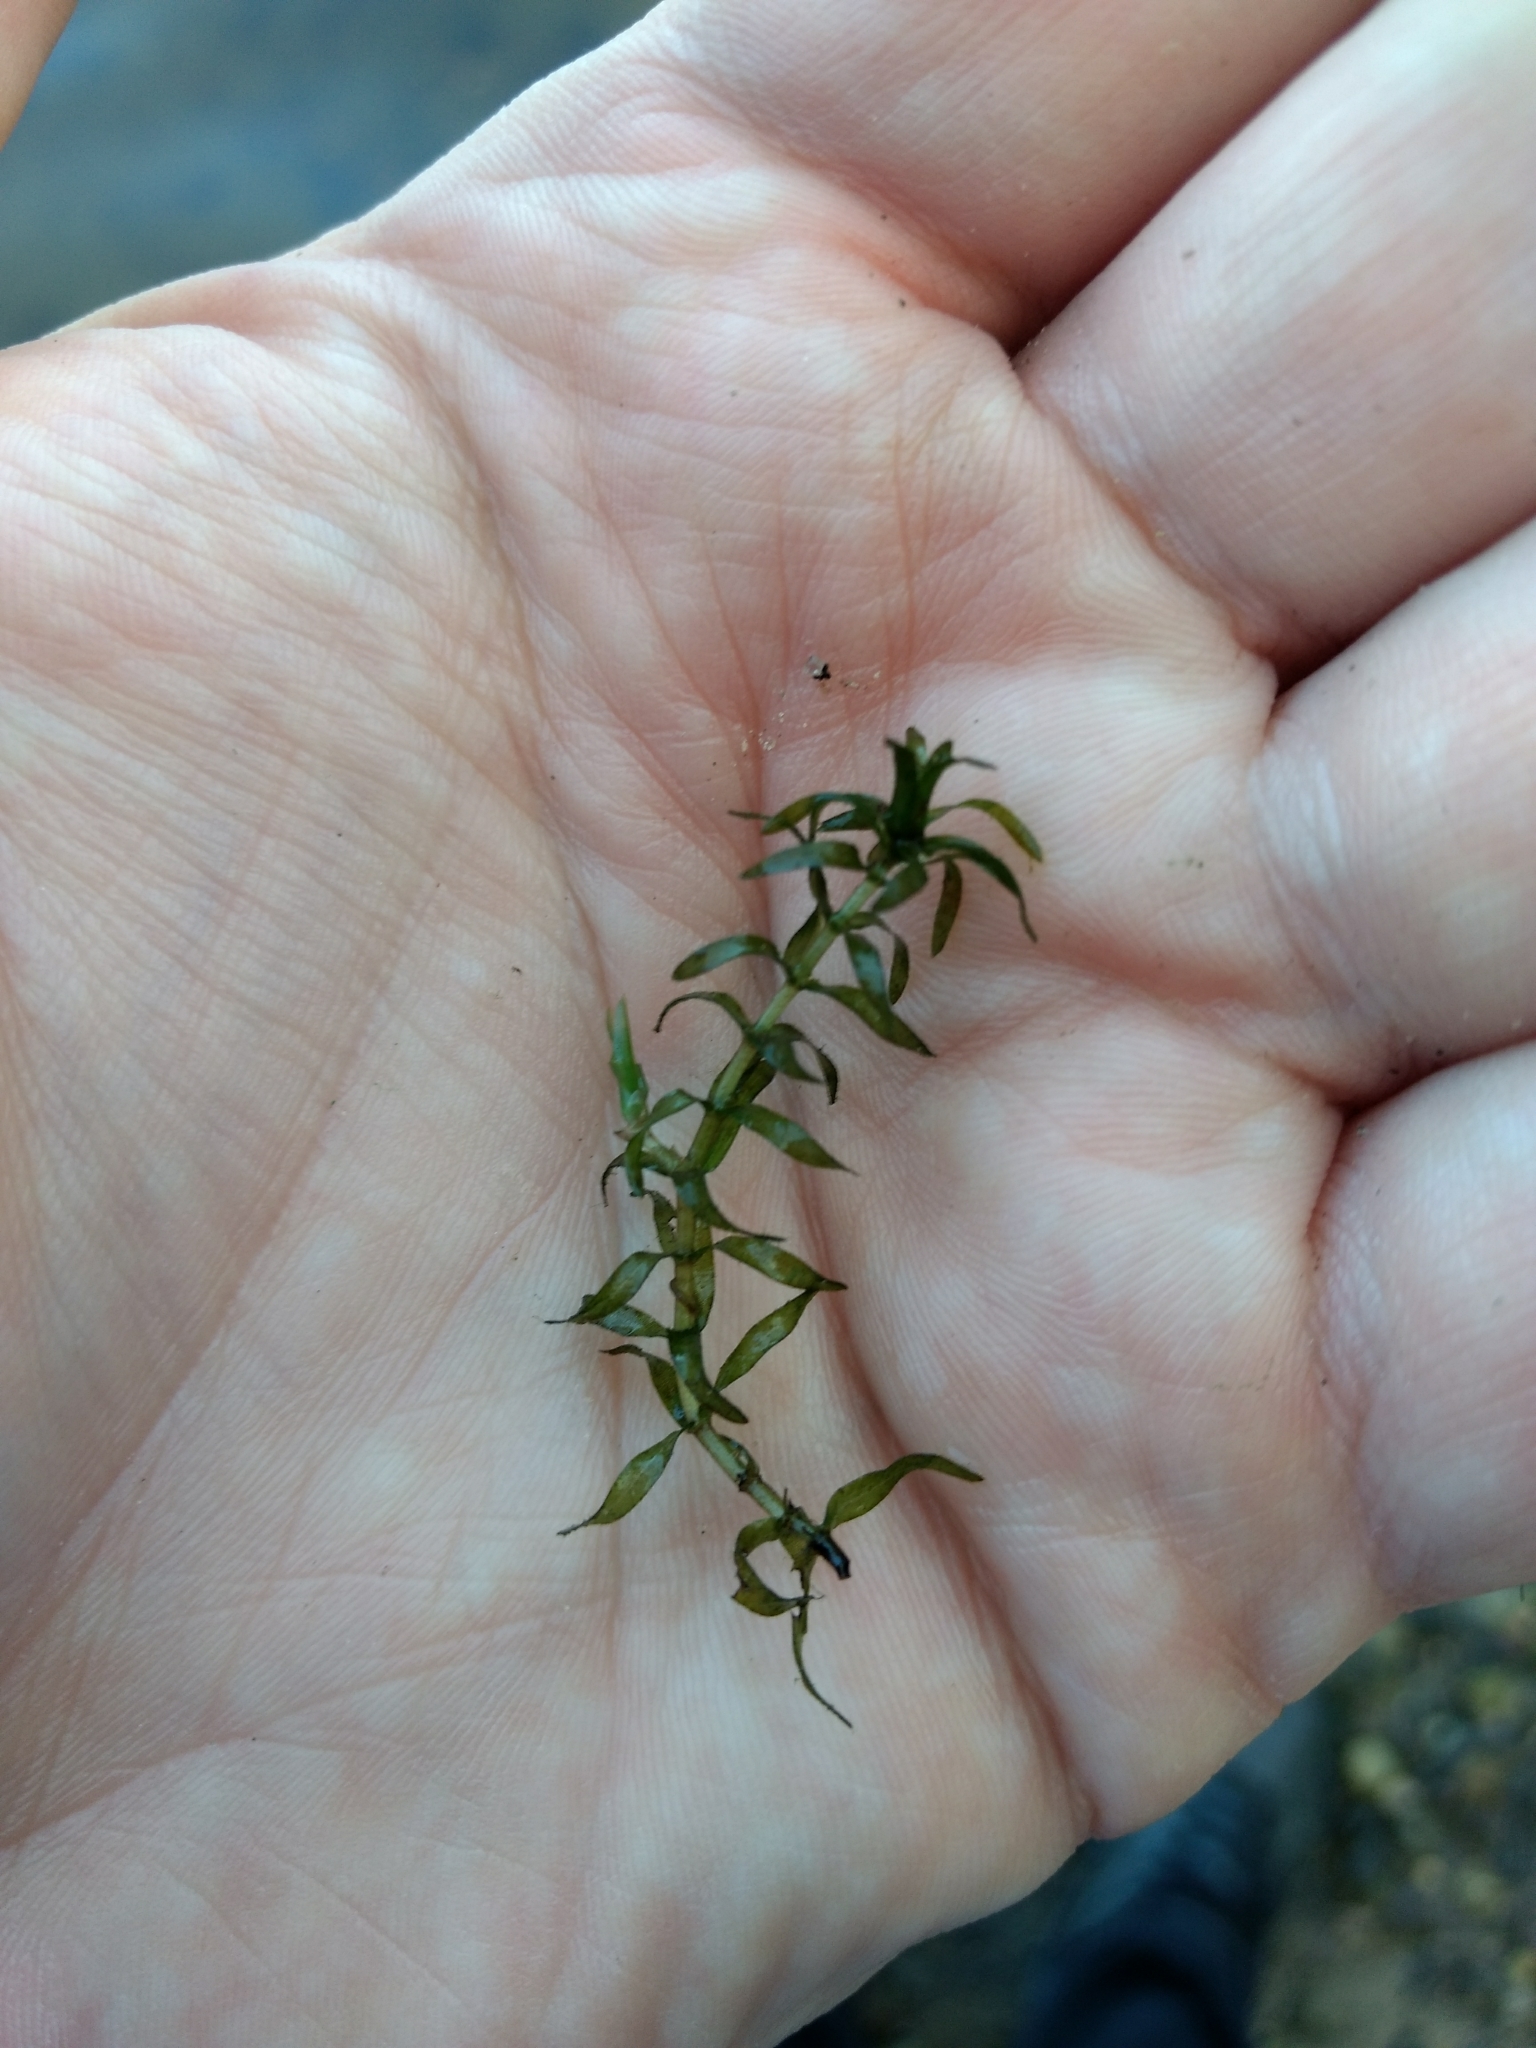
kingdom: Plantae
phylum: Tracheophyta
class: Liliopsida
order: Alismatales
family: Hydrocharitaceae
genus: Elodea
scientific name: Elodea nuttallii
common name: Nuttall's waterweed
